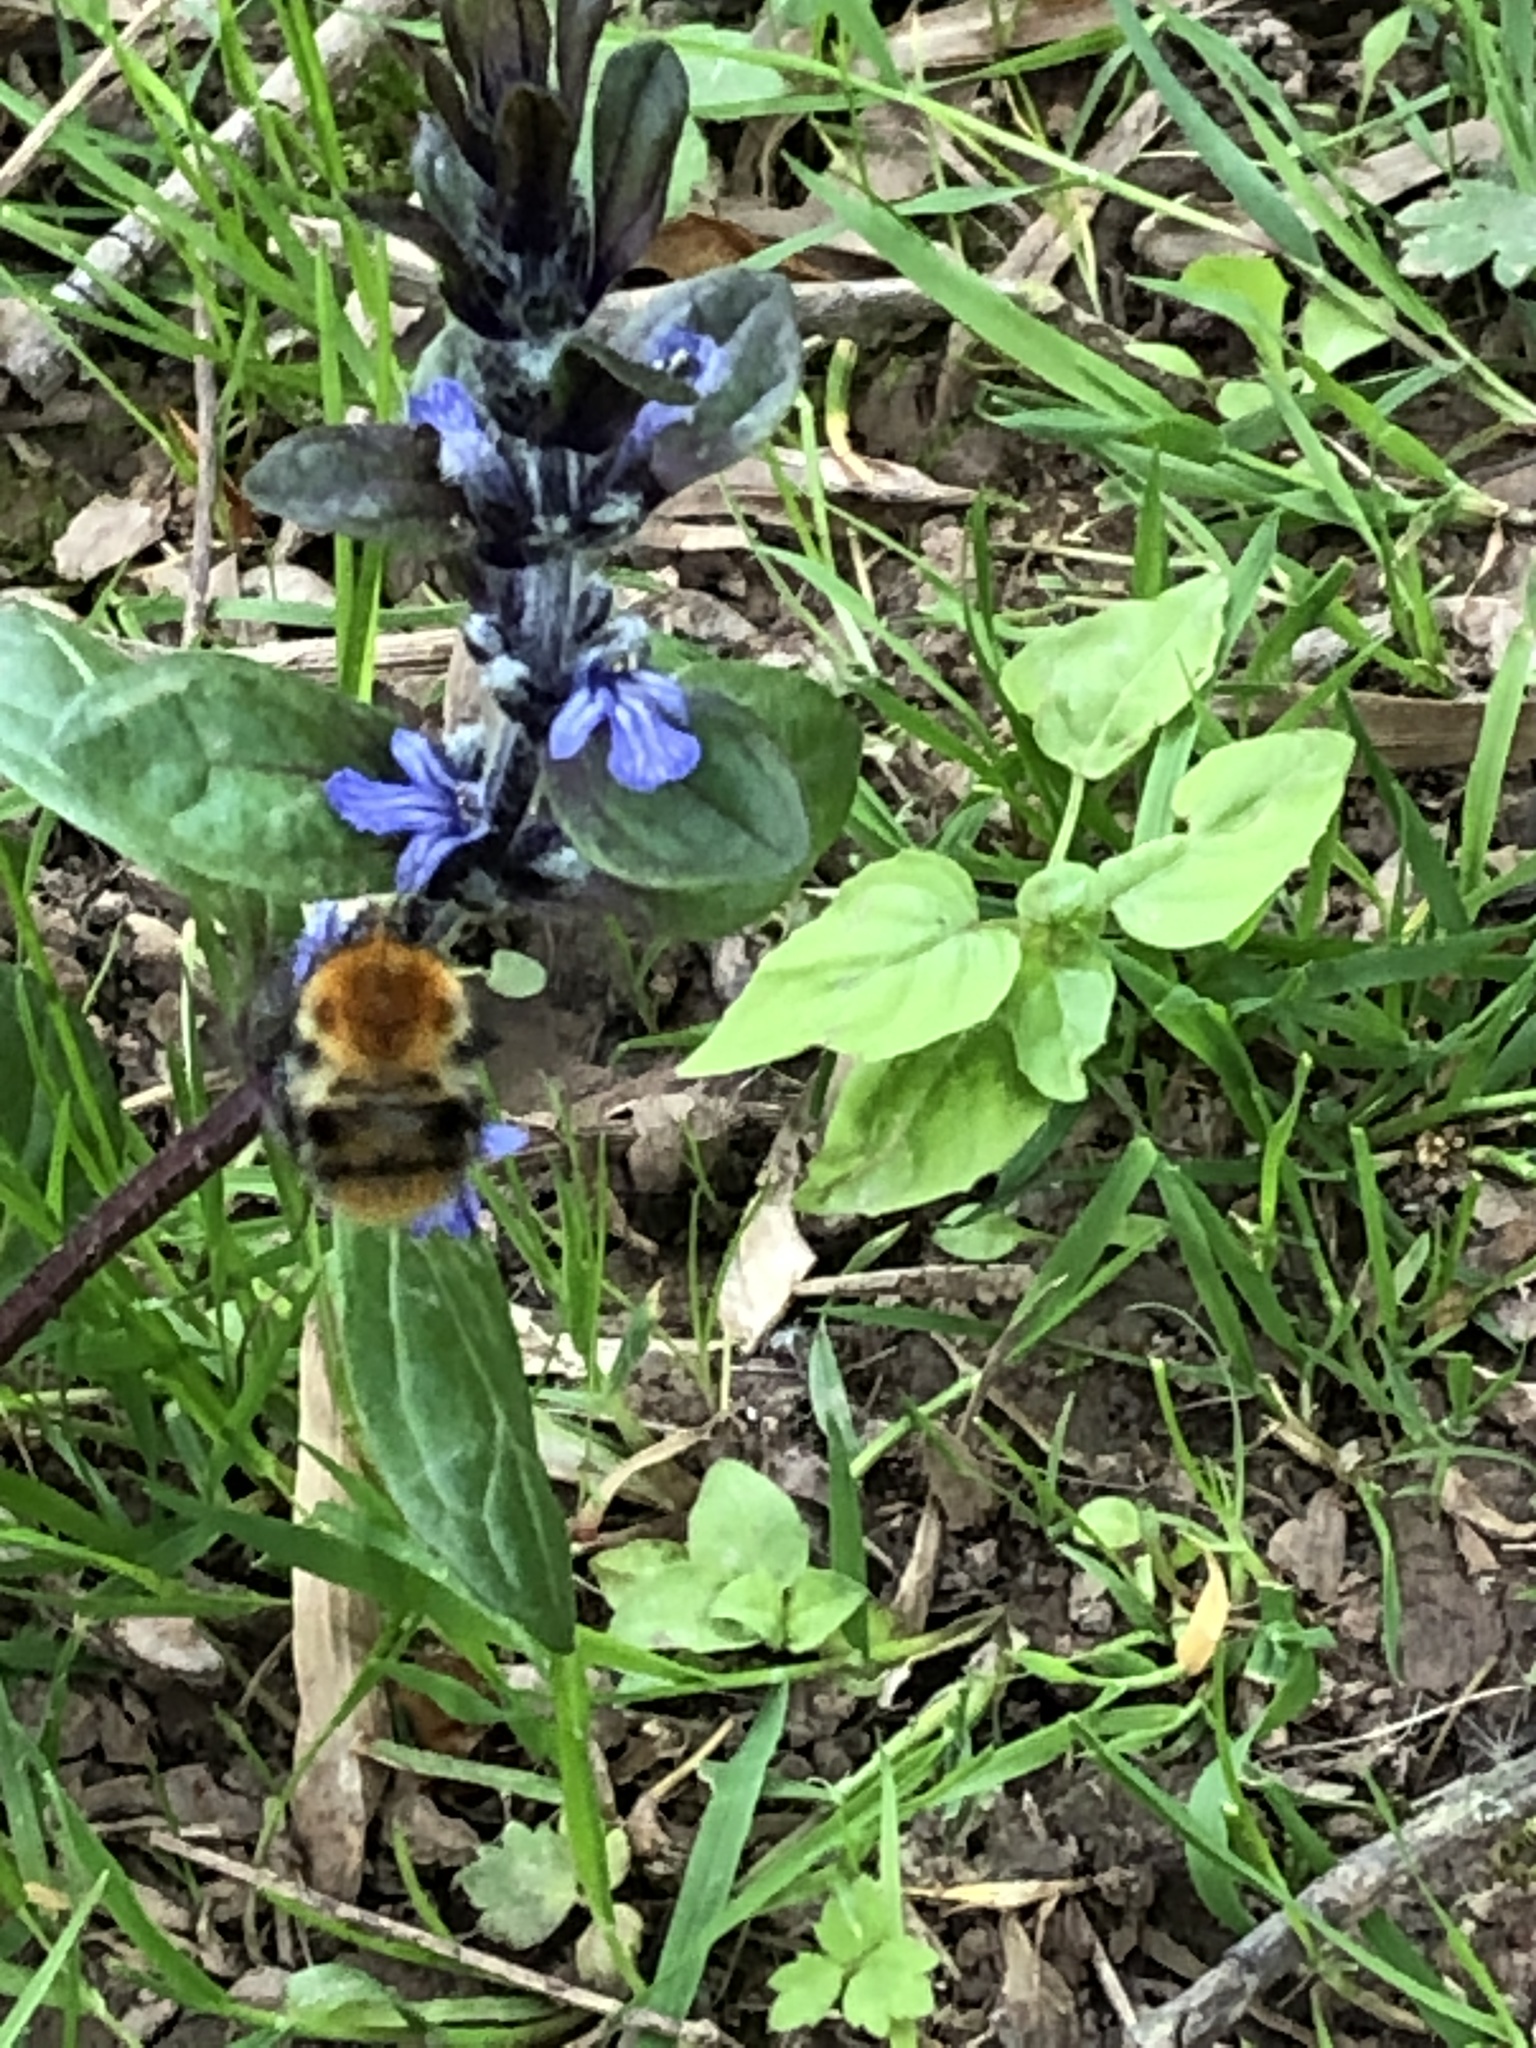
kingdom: Animalia
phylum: Arthropoda
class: Insecta
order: Hymenoptera
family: Apidae
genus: Bombus
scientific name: Bombus pascuorum
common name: Common carder bee
